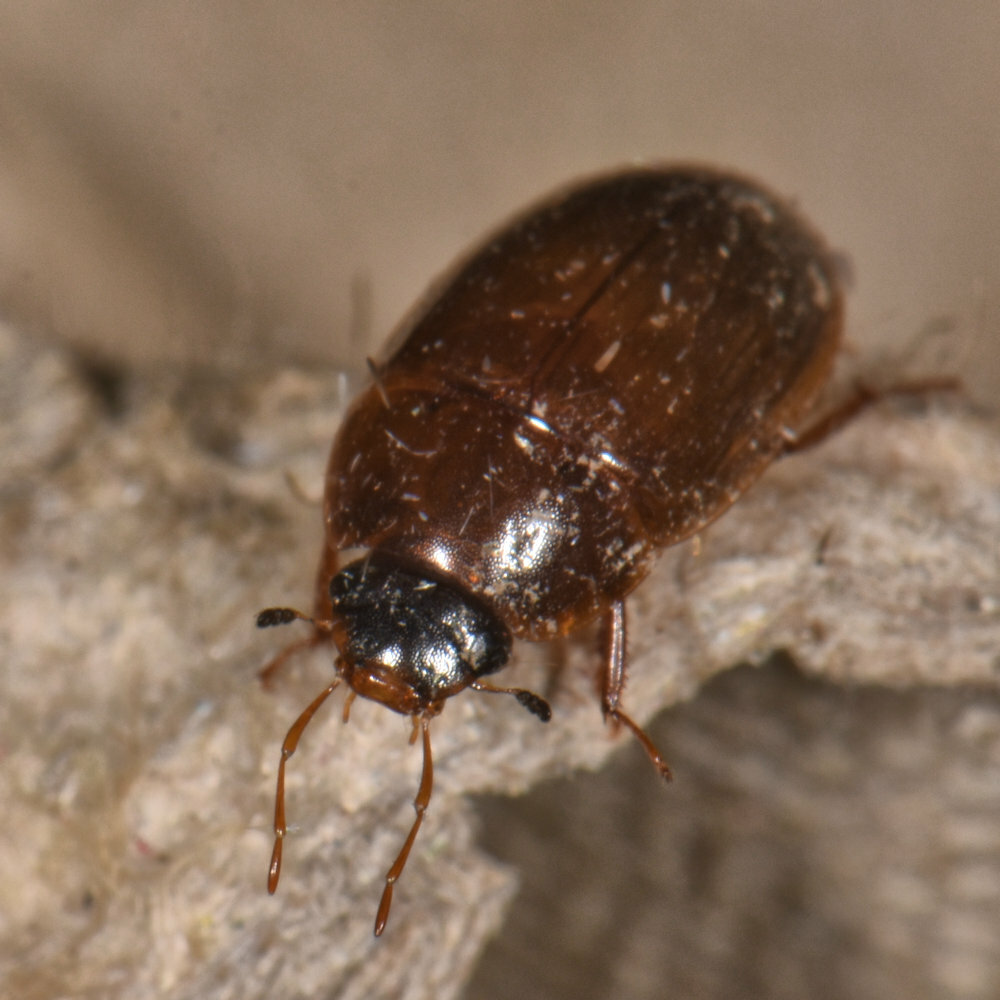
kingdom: Animalia
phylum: Arthropoda
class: Insecta
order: Coleoptera
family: Hydrophilidae
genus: Cymbiodyta
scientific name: Cymbiodyta bifida
